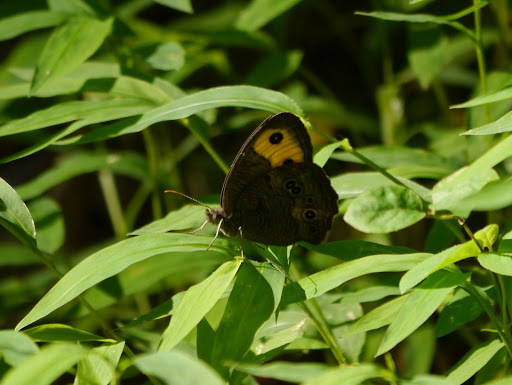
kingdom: Animalia
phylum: Arthropoda
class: Insecta
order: Lepidoptera
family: Nymphalidae
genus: Cercyonis
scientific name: Cercyonis pegala
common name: Common wood-nymph
